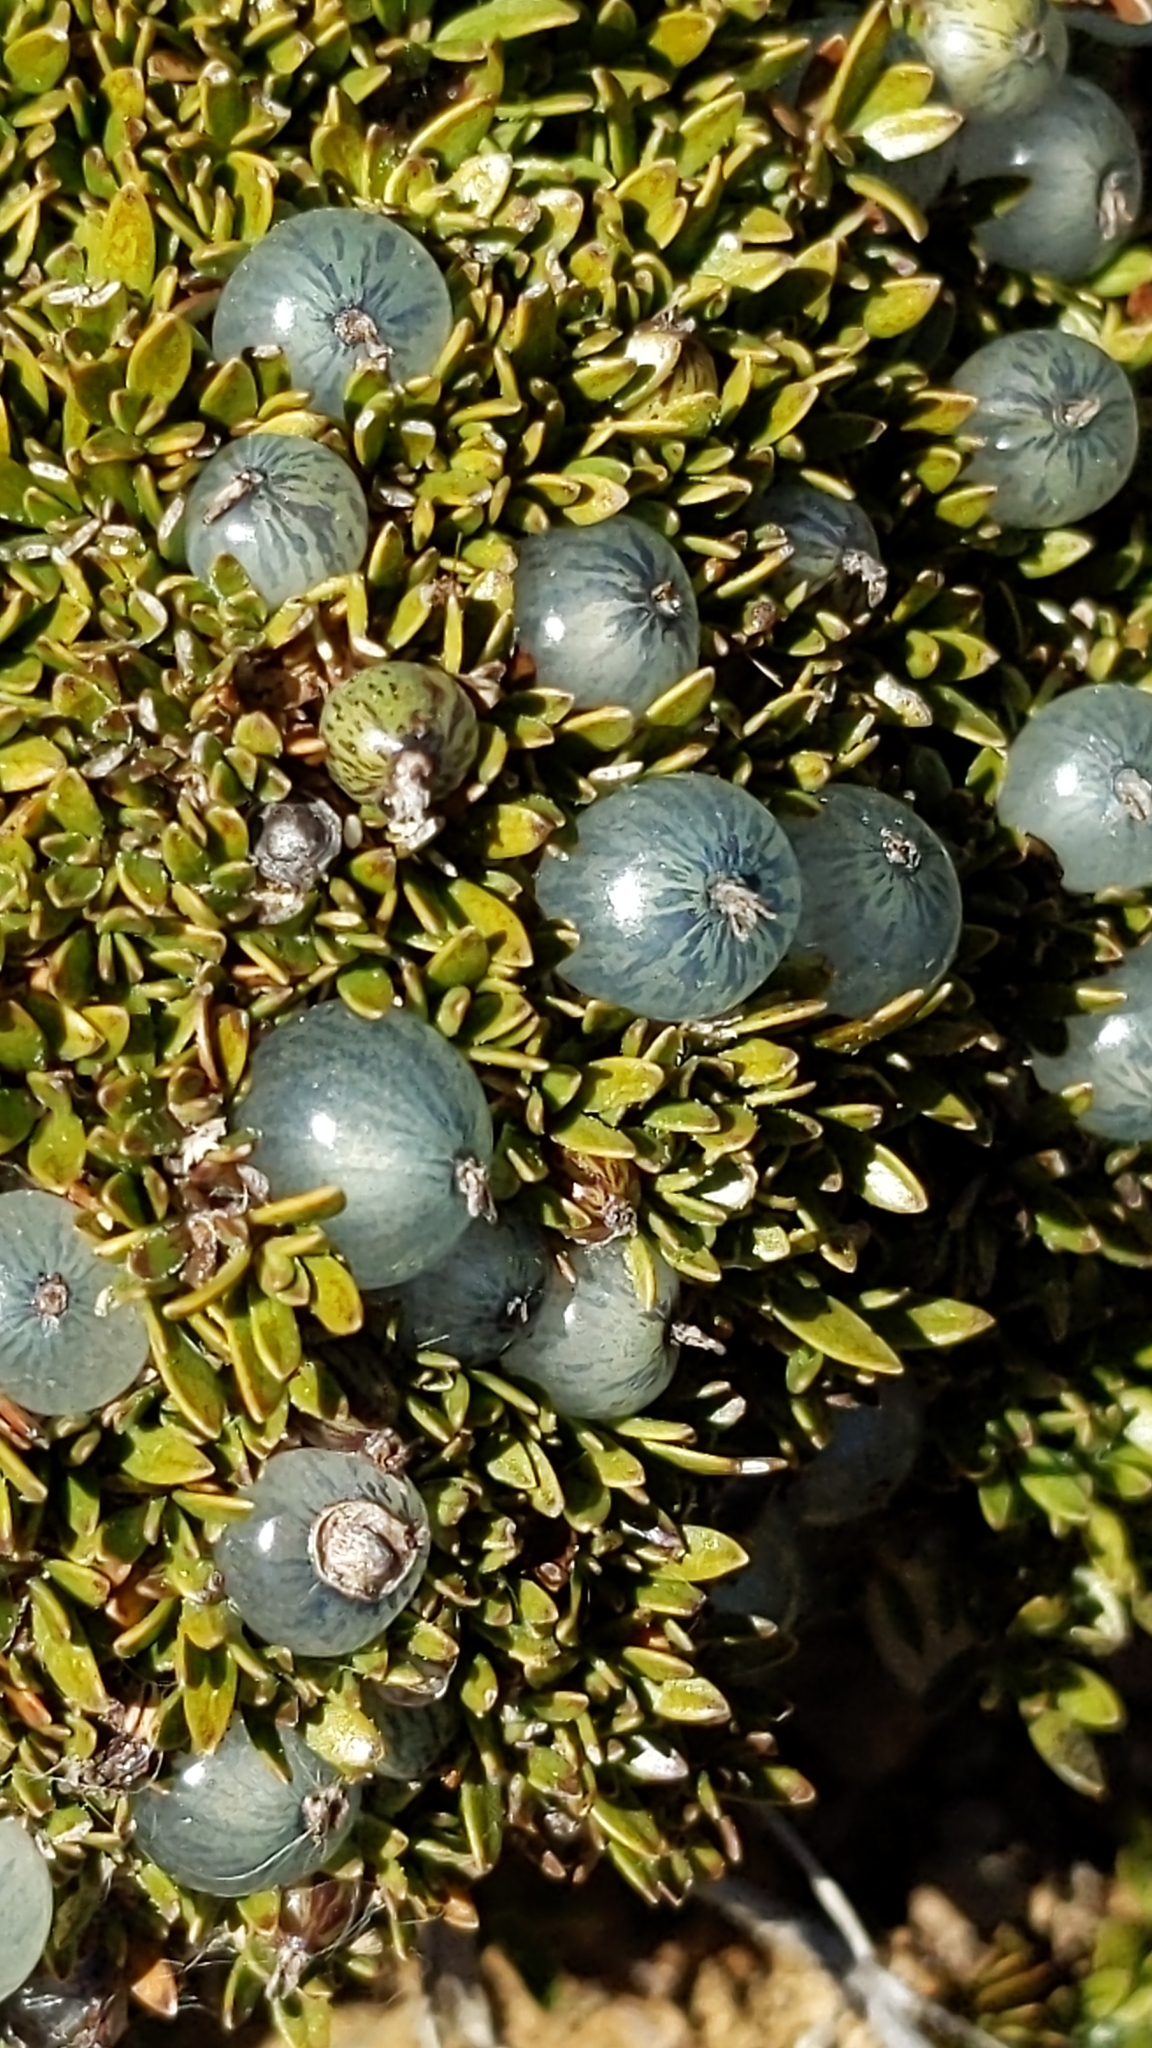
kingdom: Plantae
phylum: Tracheophyta
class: Magnoliopsida
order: Gentianales
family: Rubiaceae
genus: Coprosma
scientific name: Coprosma petriei
